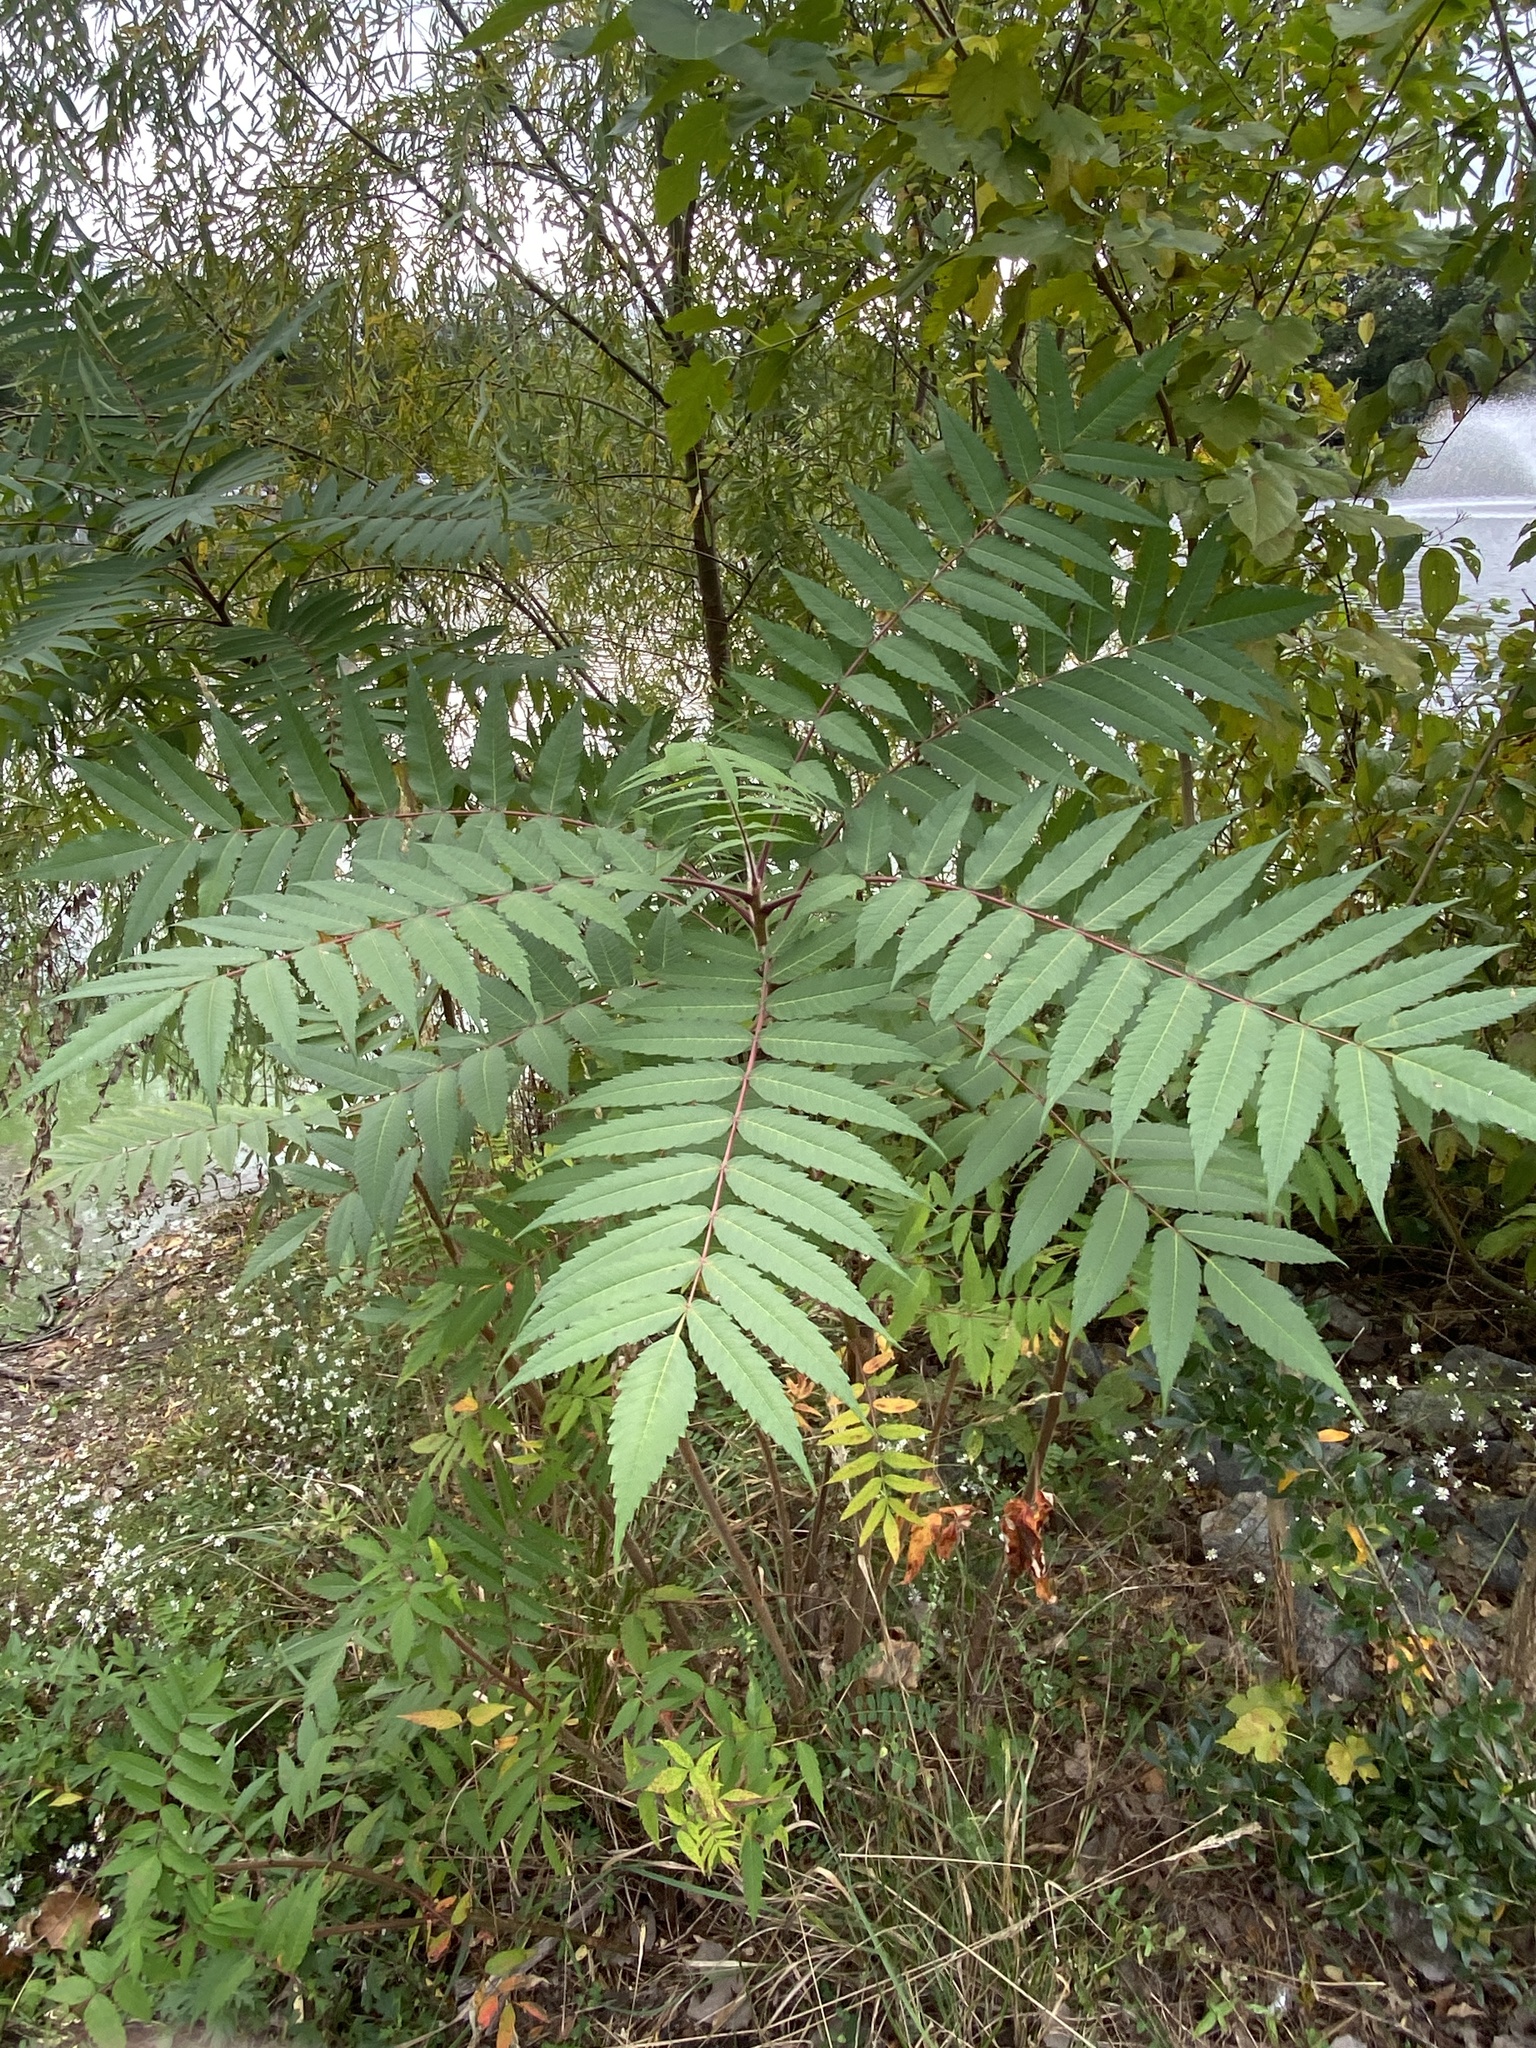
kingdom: Plantae
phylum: Tracheophyta
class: Magnoliopsida
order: Sapindales
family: Anacardiaceae
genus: Rhus
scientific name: Rhus typhina
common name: Staghorn sumac
